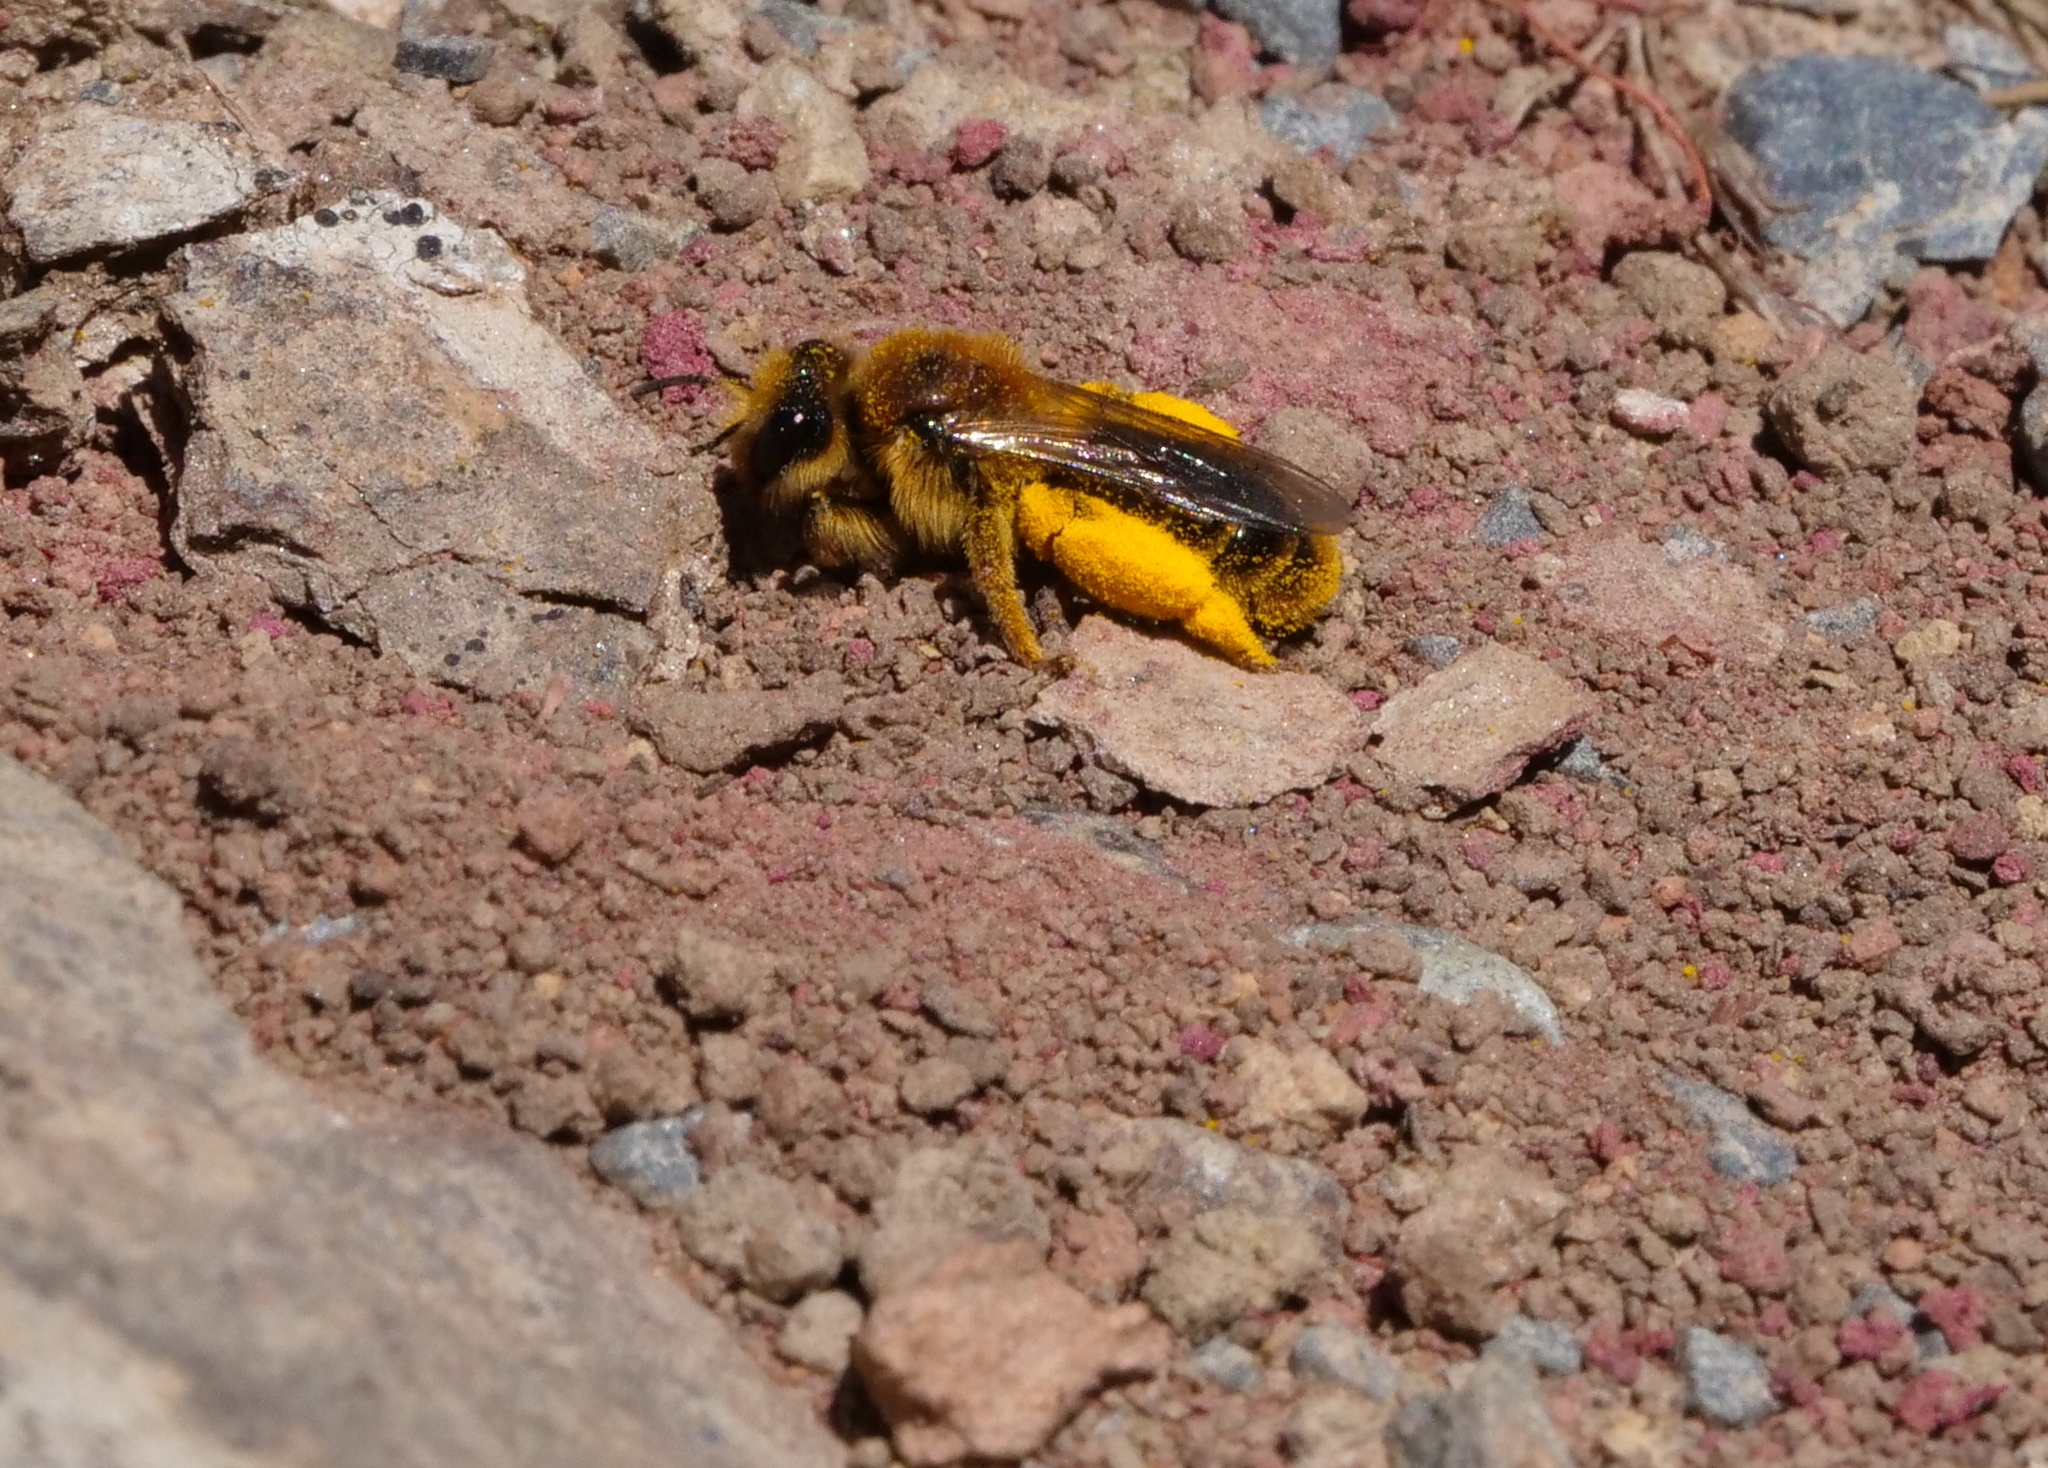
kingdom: Animalia
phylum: Arthropoda
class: Insecta
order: Hymenoptera
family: Colletidae
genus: Leioproctus
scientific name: Leioproctus fulvescens
